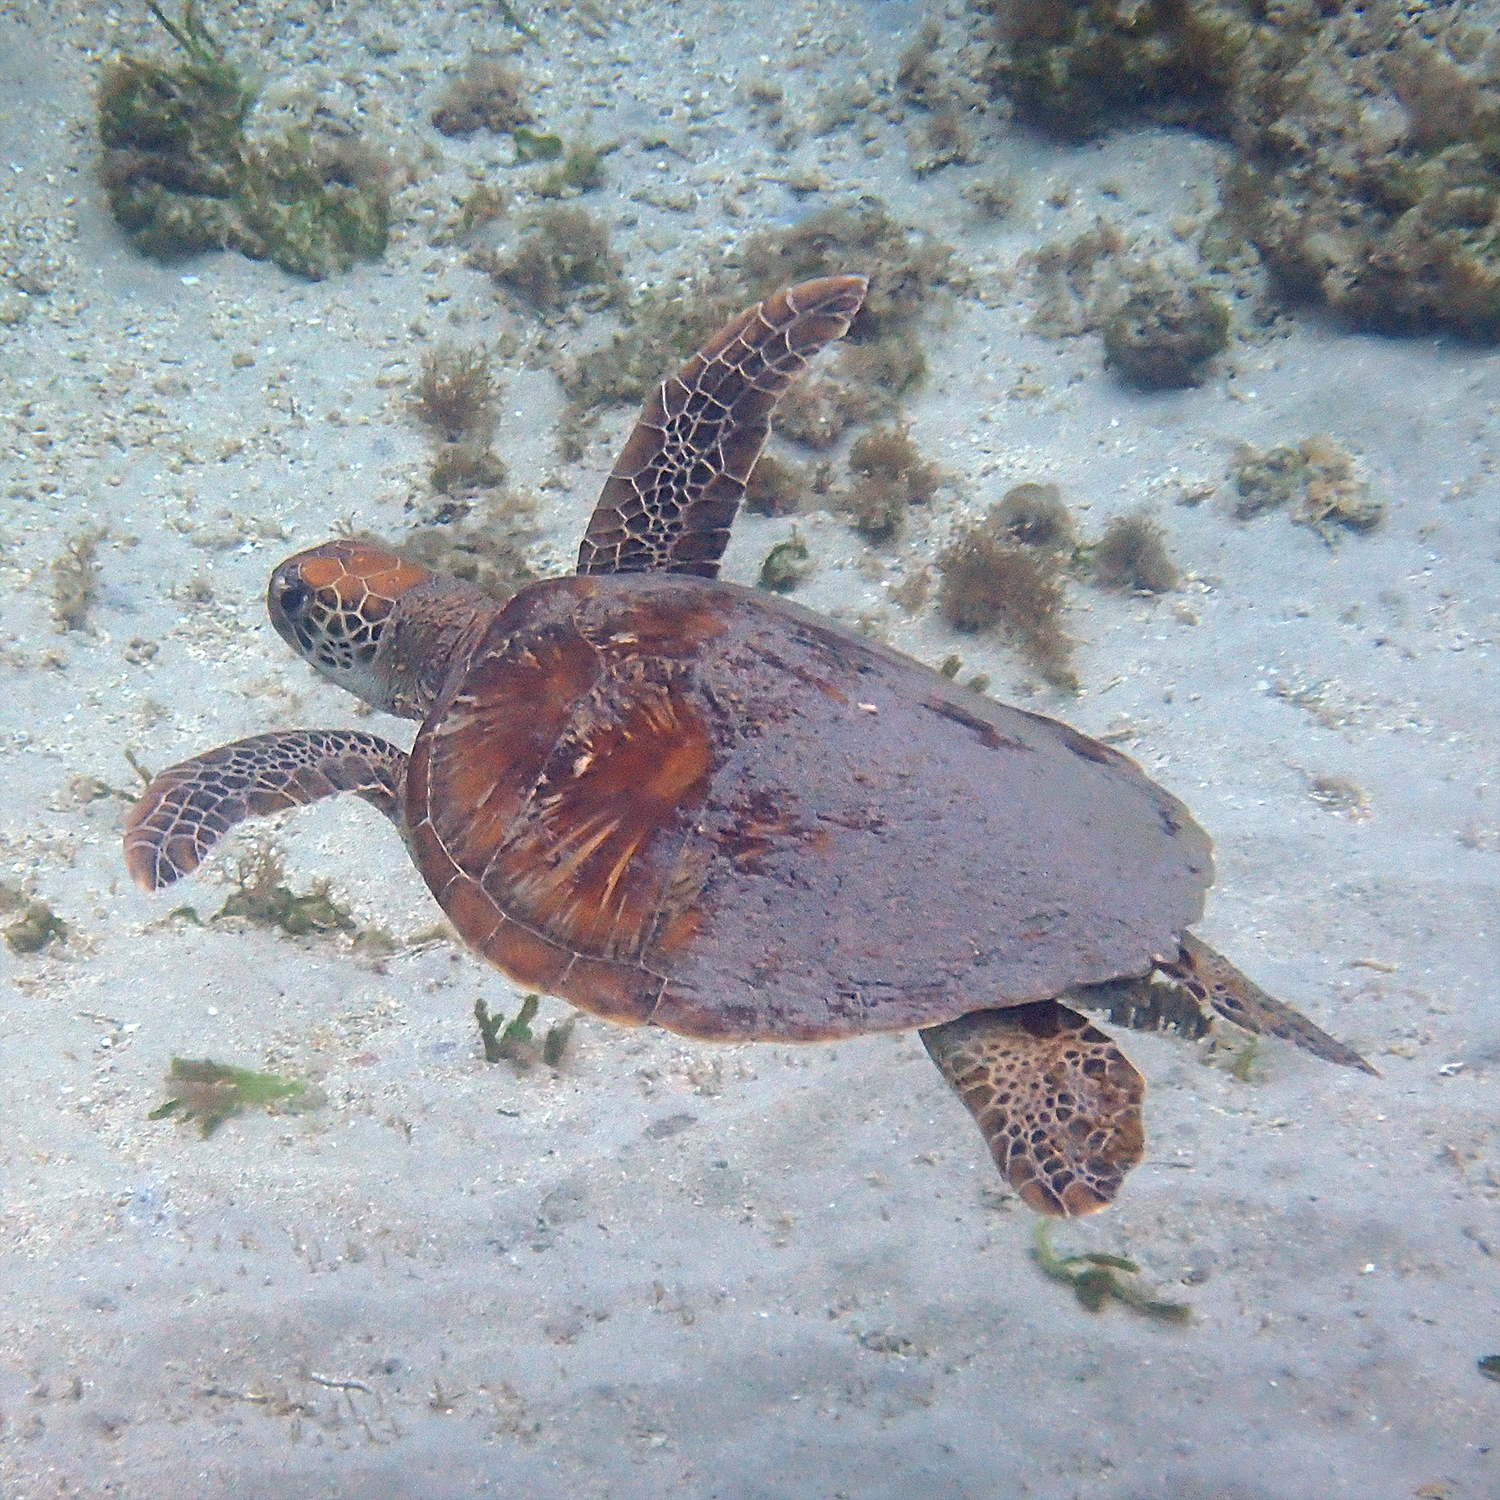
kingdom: Animalia
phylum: Chordata
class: Testudines
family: Cheloniidae
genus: Chelonia
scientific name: Chelonia mydas
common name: Green turtle
